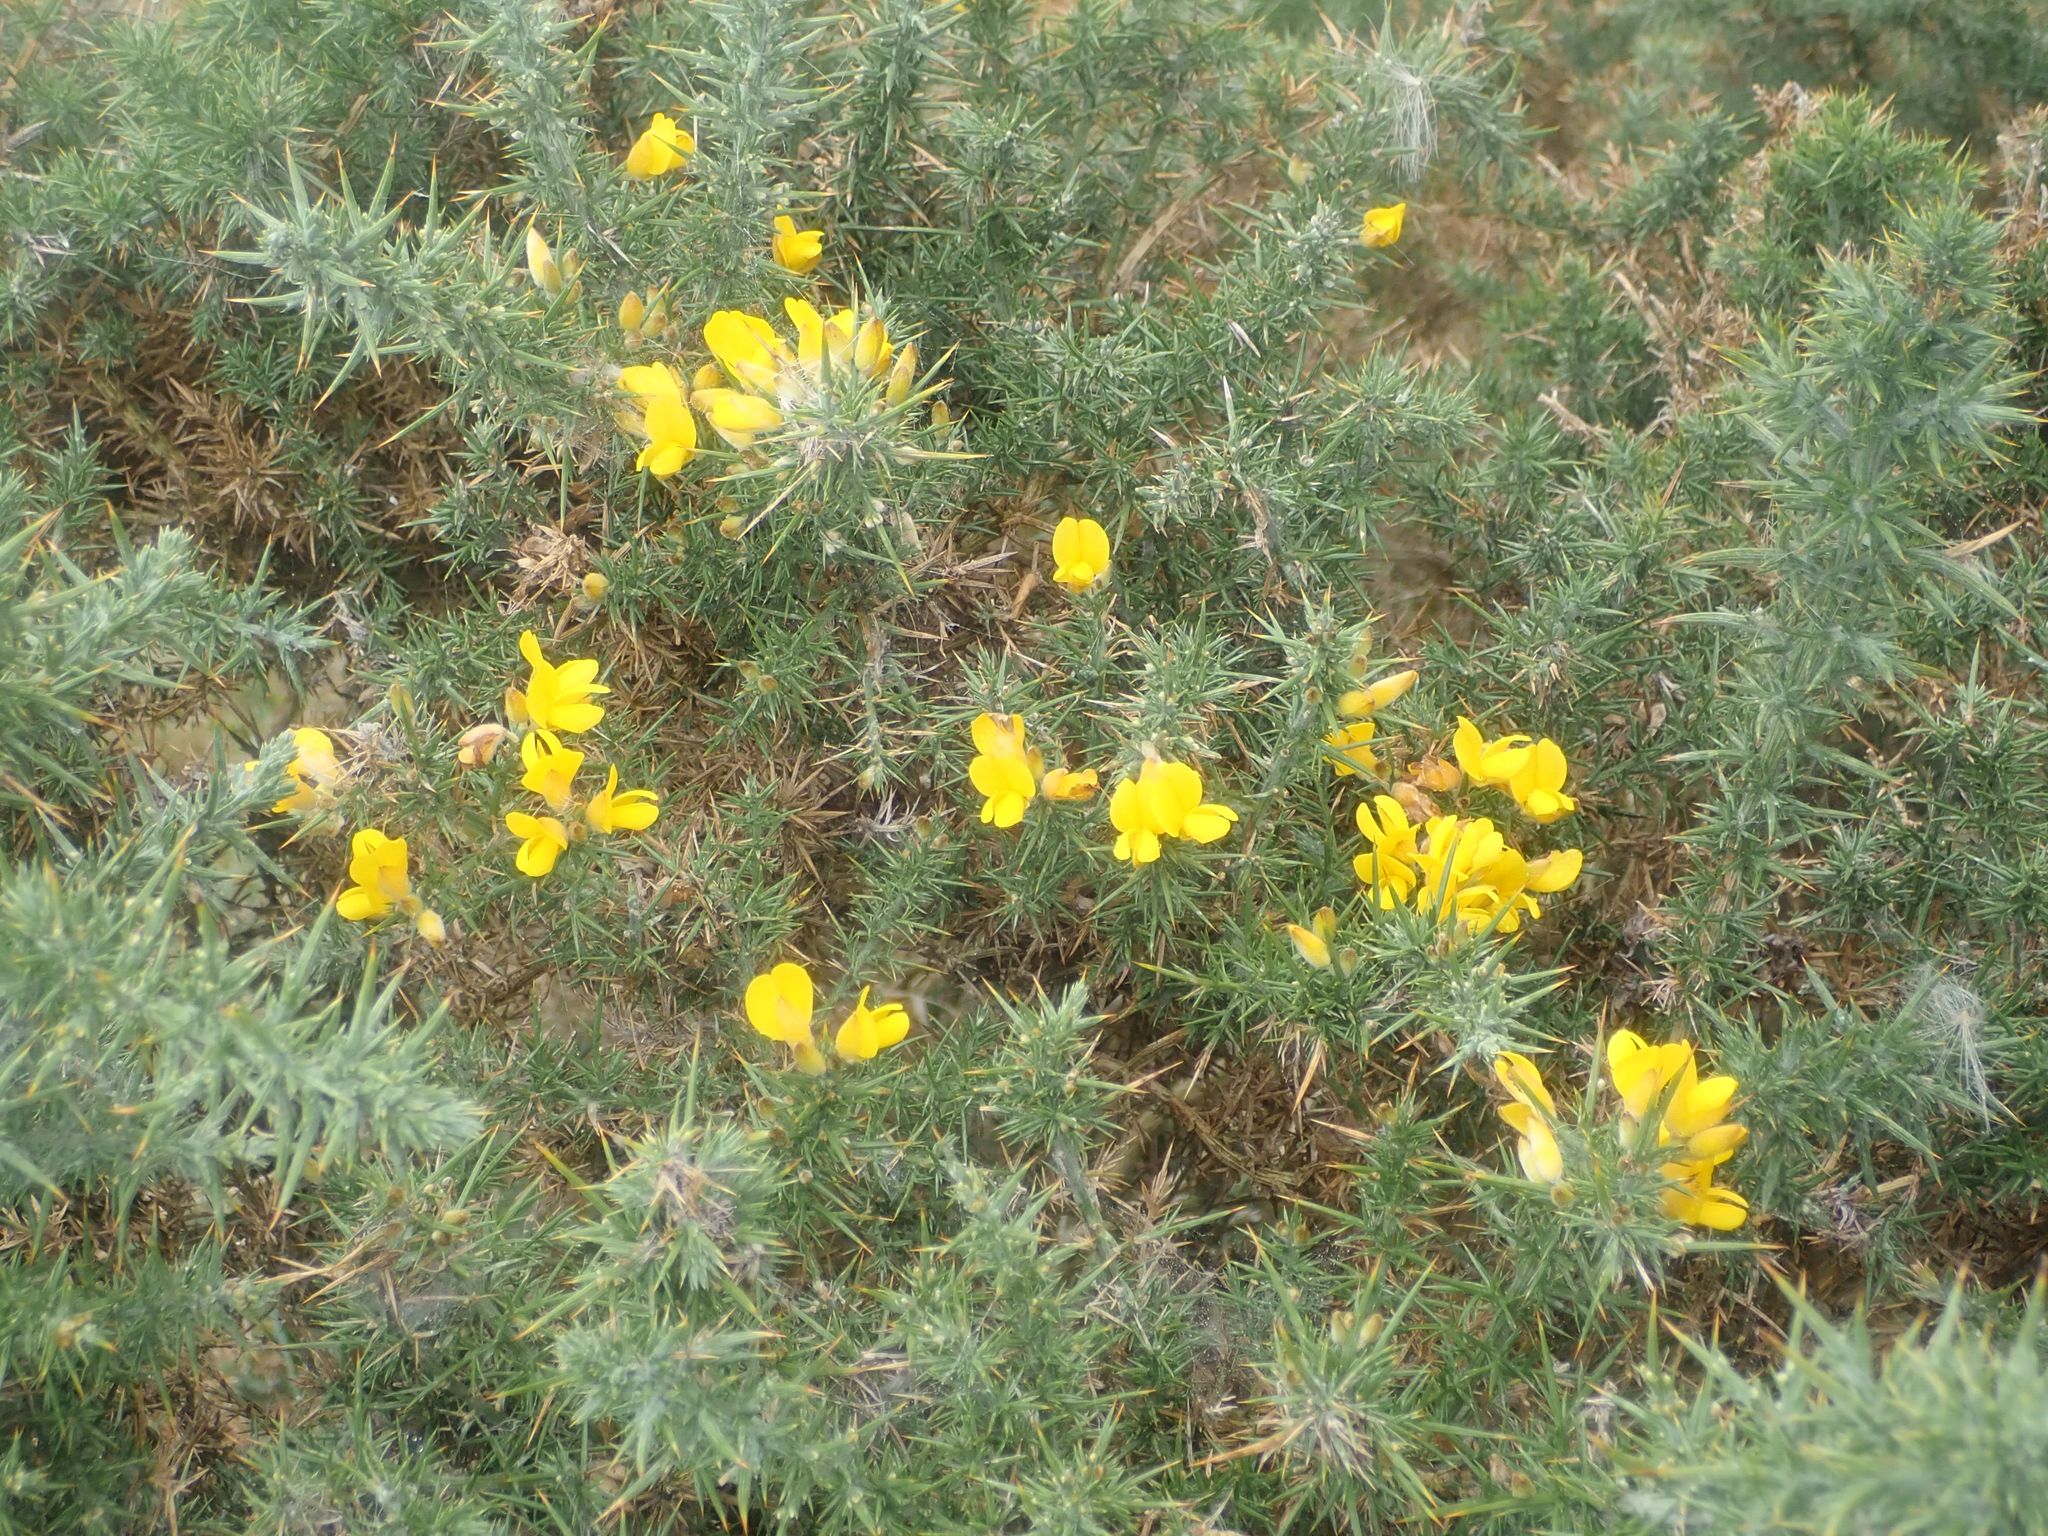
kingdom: Plantae
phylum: Tracheophyta
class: Magnoliopsida
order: Fabales
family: Fabaceae
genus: Ulex
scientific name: Ulex europaeus
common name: Common gorse
